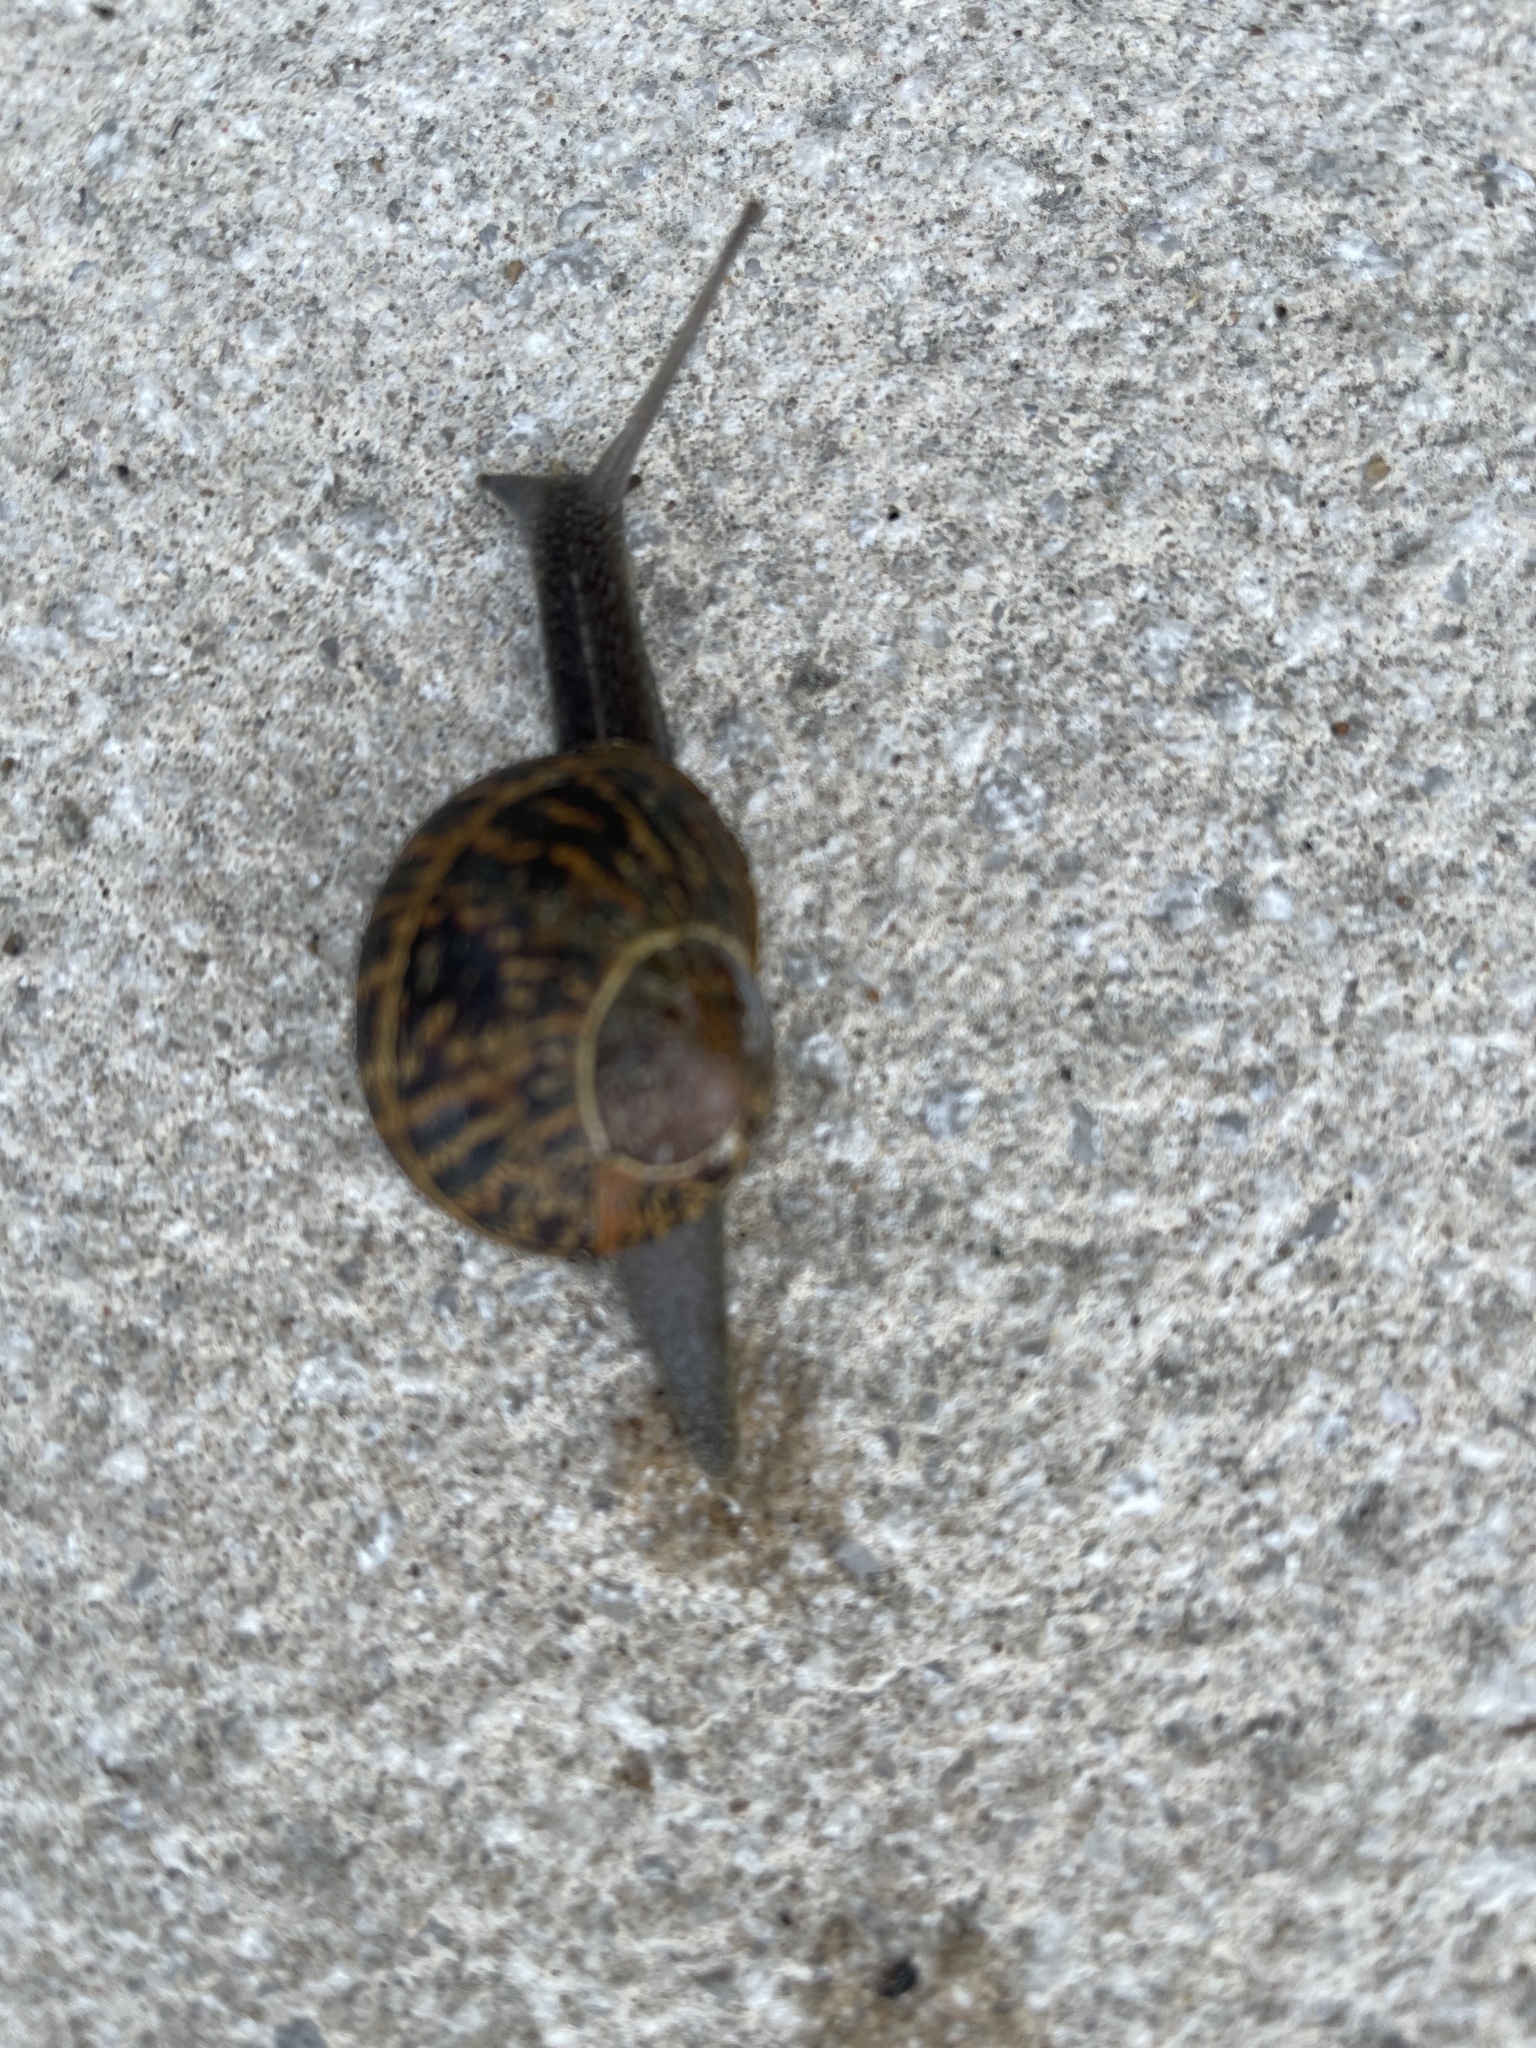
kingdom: Animalia
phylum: Mollusca
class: Gastropoda
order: Stylommatophora
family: Helicidae
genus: Cornu
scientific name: Cornu aspersum
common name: Brown garden snail
